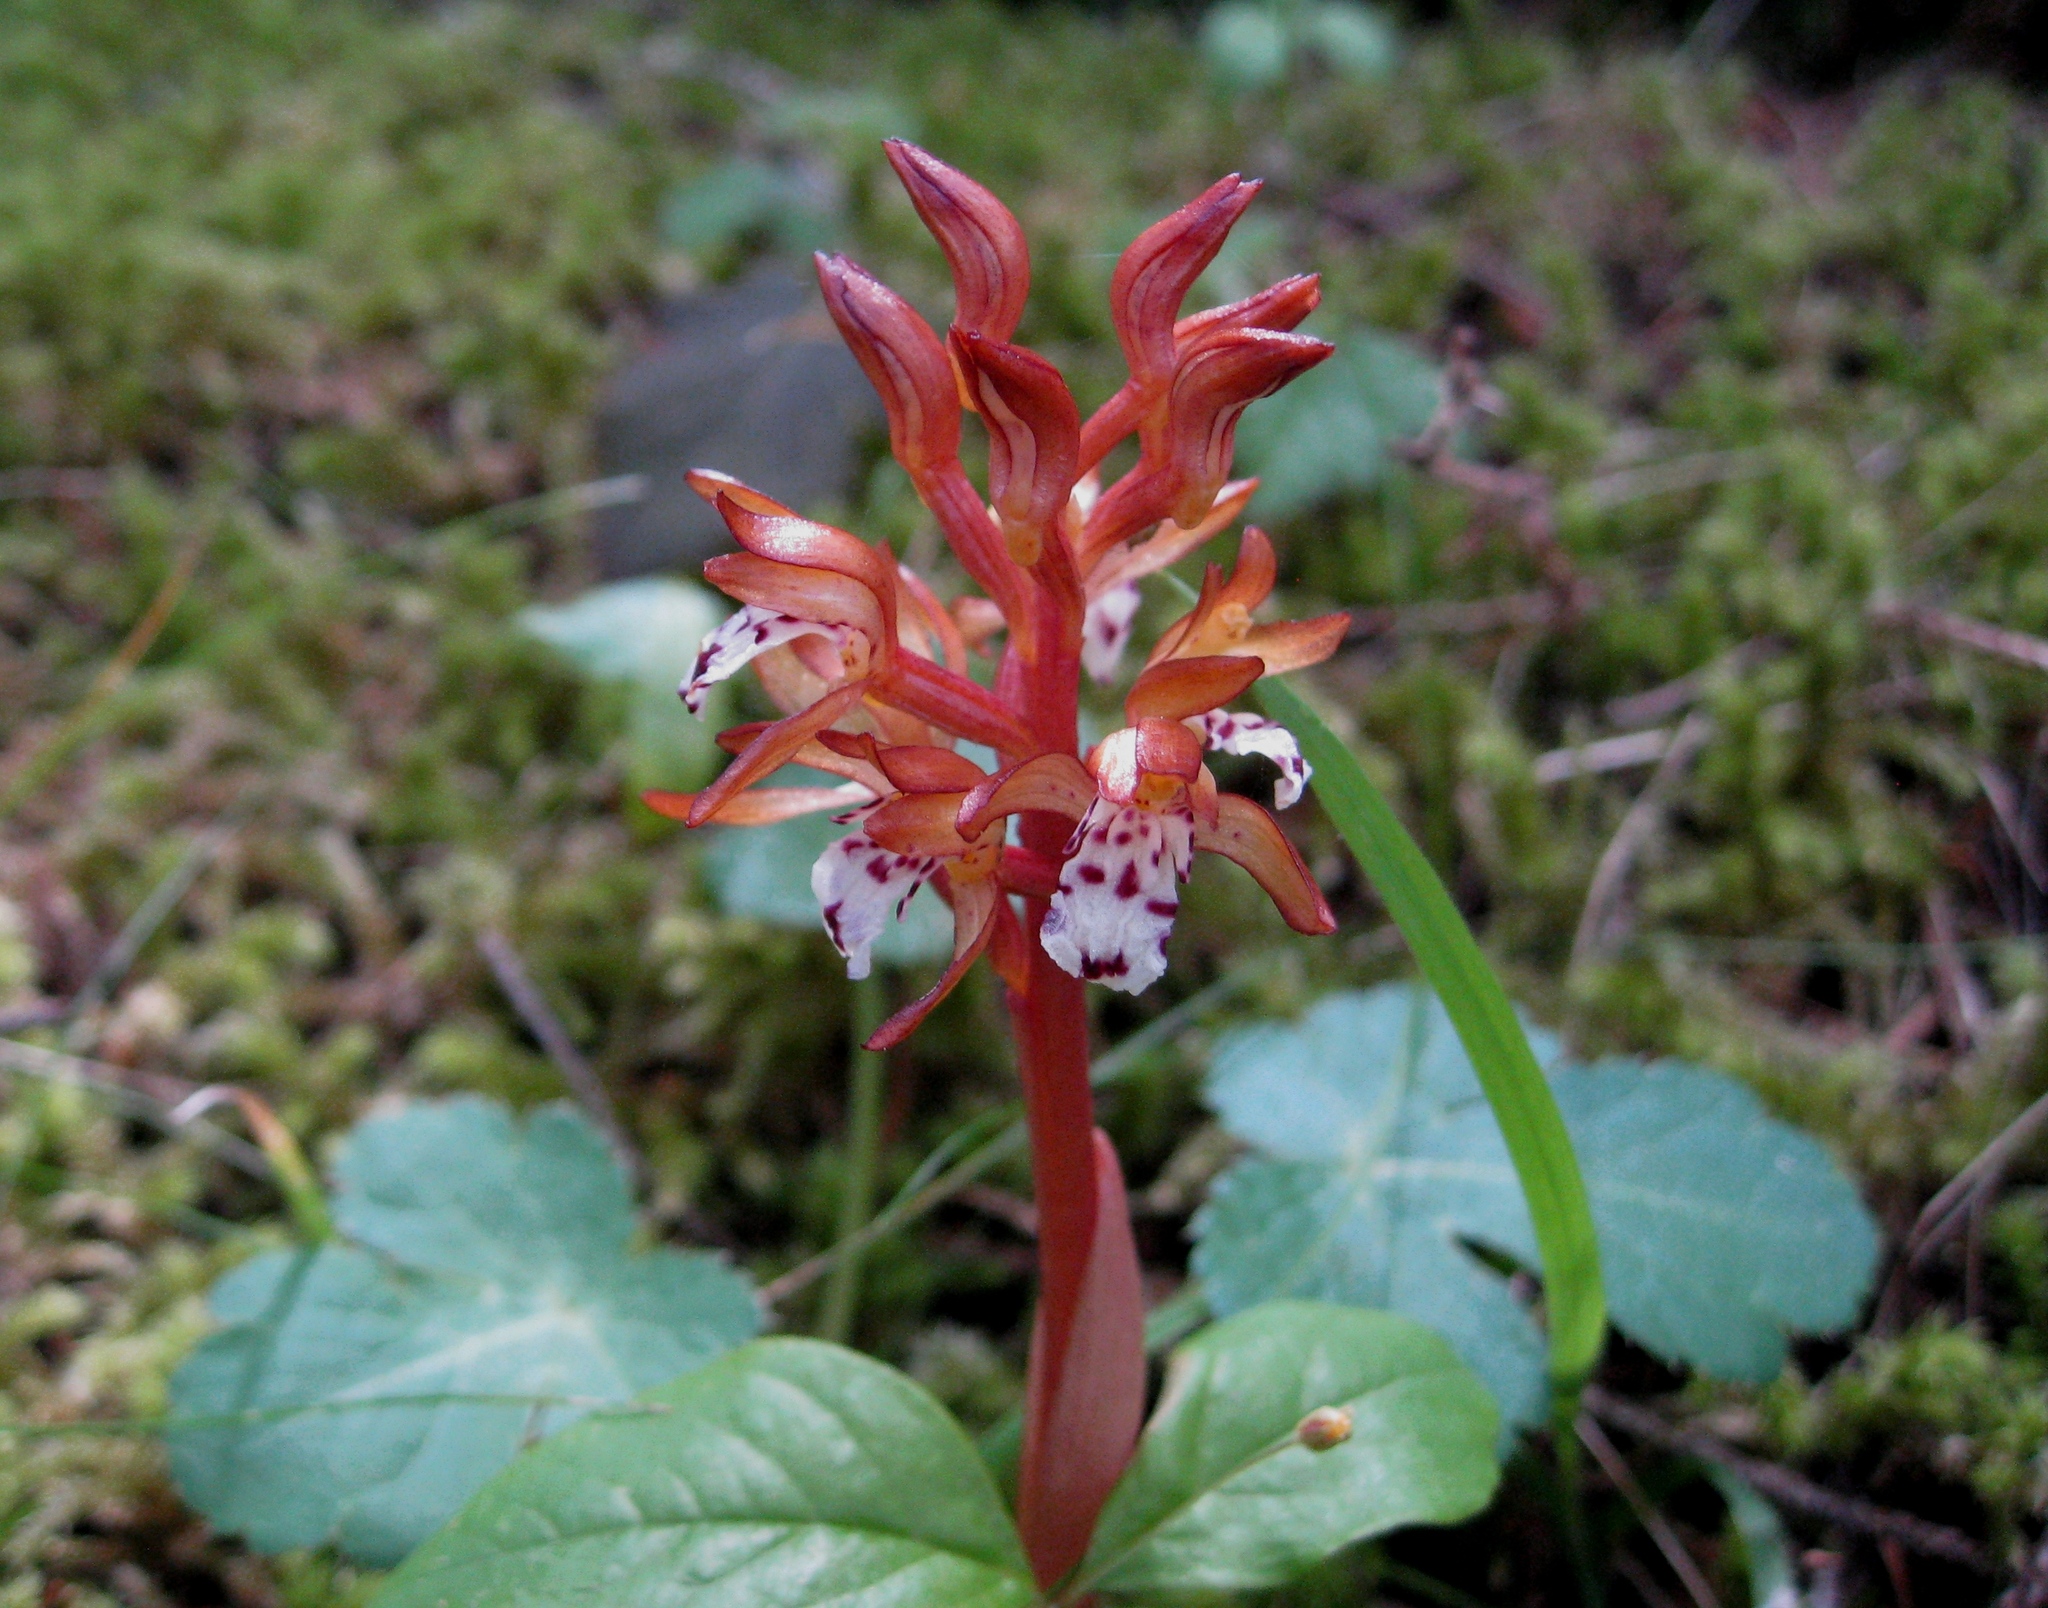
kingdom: Plantae
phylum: Tracheophyta
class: Liliopsida
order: Asparagales
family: Orchidaceae
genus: Corallorhiza
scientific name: Corallorhiza maculata
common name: Spotted coralroot
